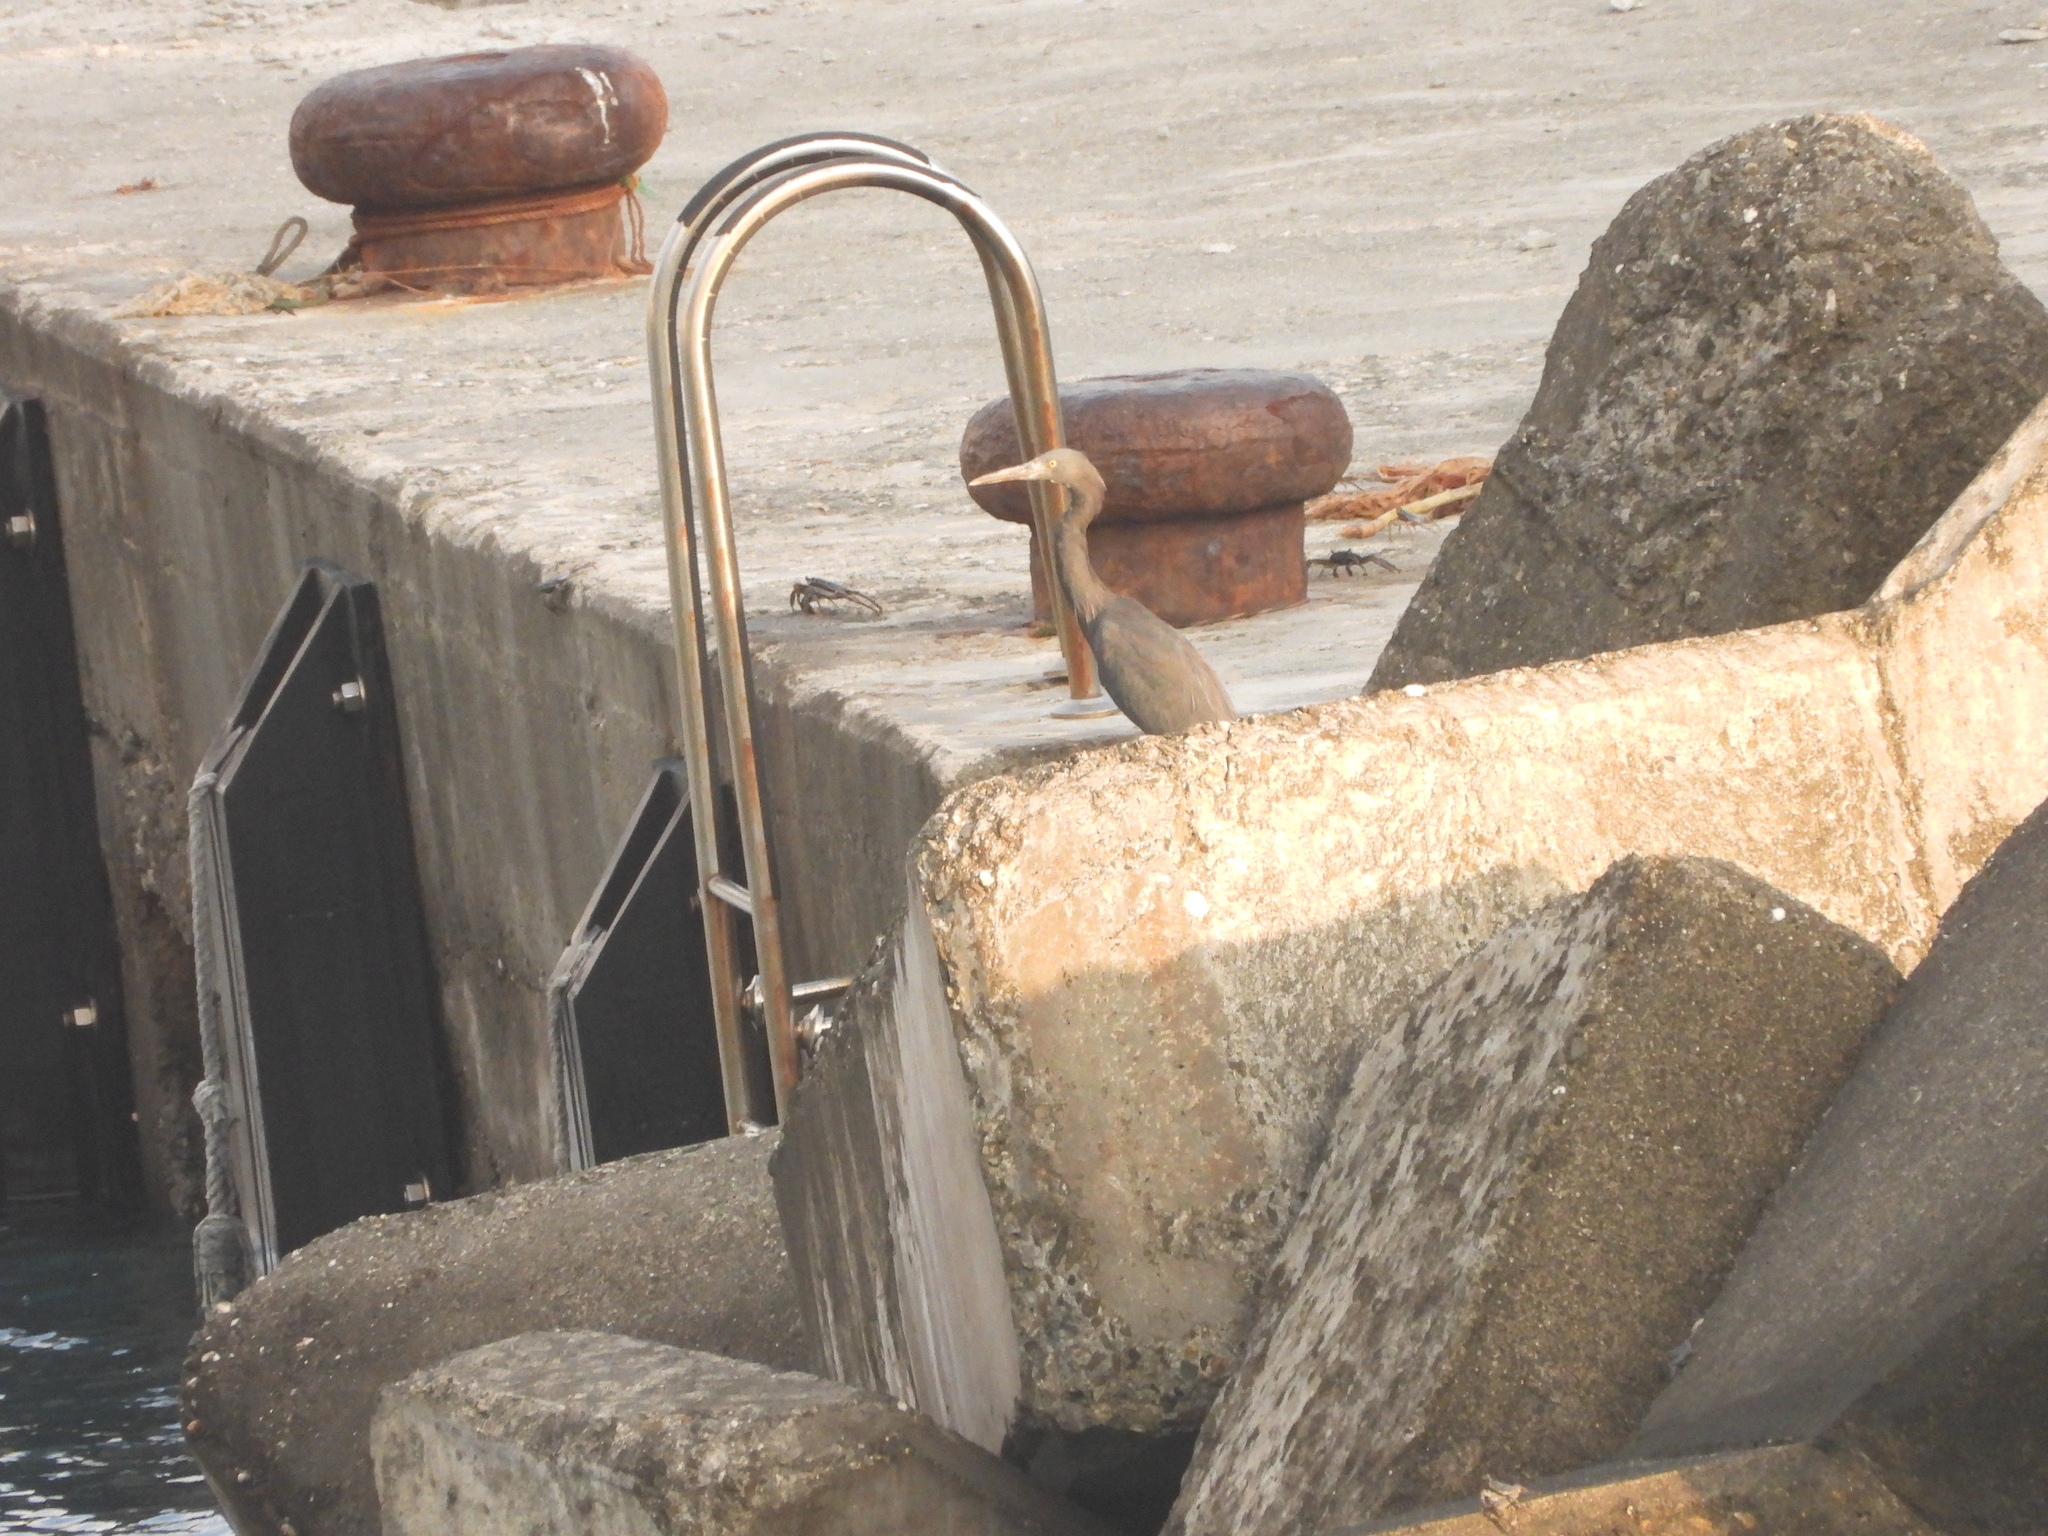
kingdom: Animalia
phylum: Chordata
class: Aves
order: Pelecaniformes
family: Ardeidae
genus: Egretta
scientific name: Egretta sacra
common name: Pacific reef heron
